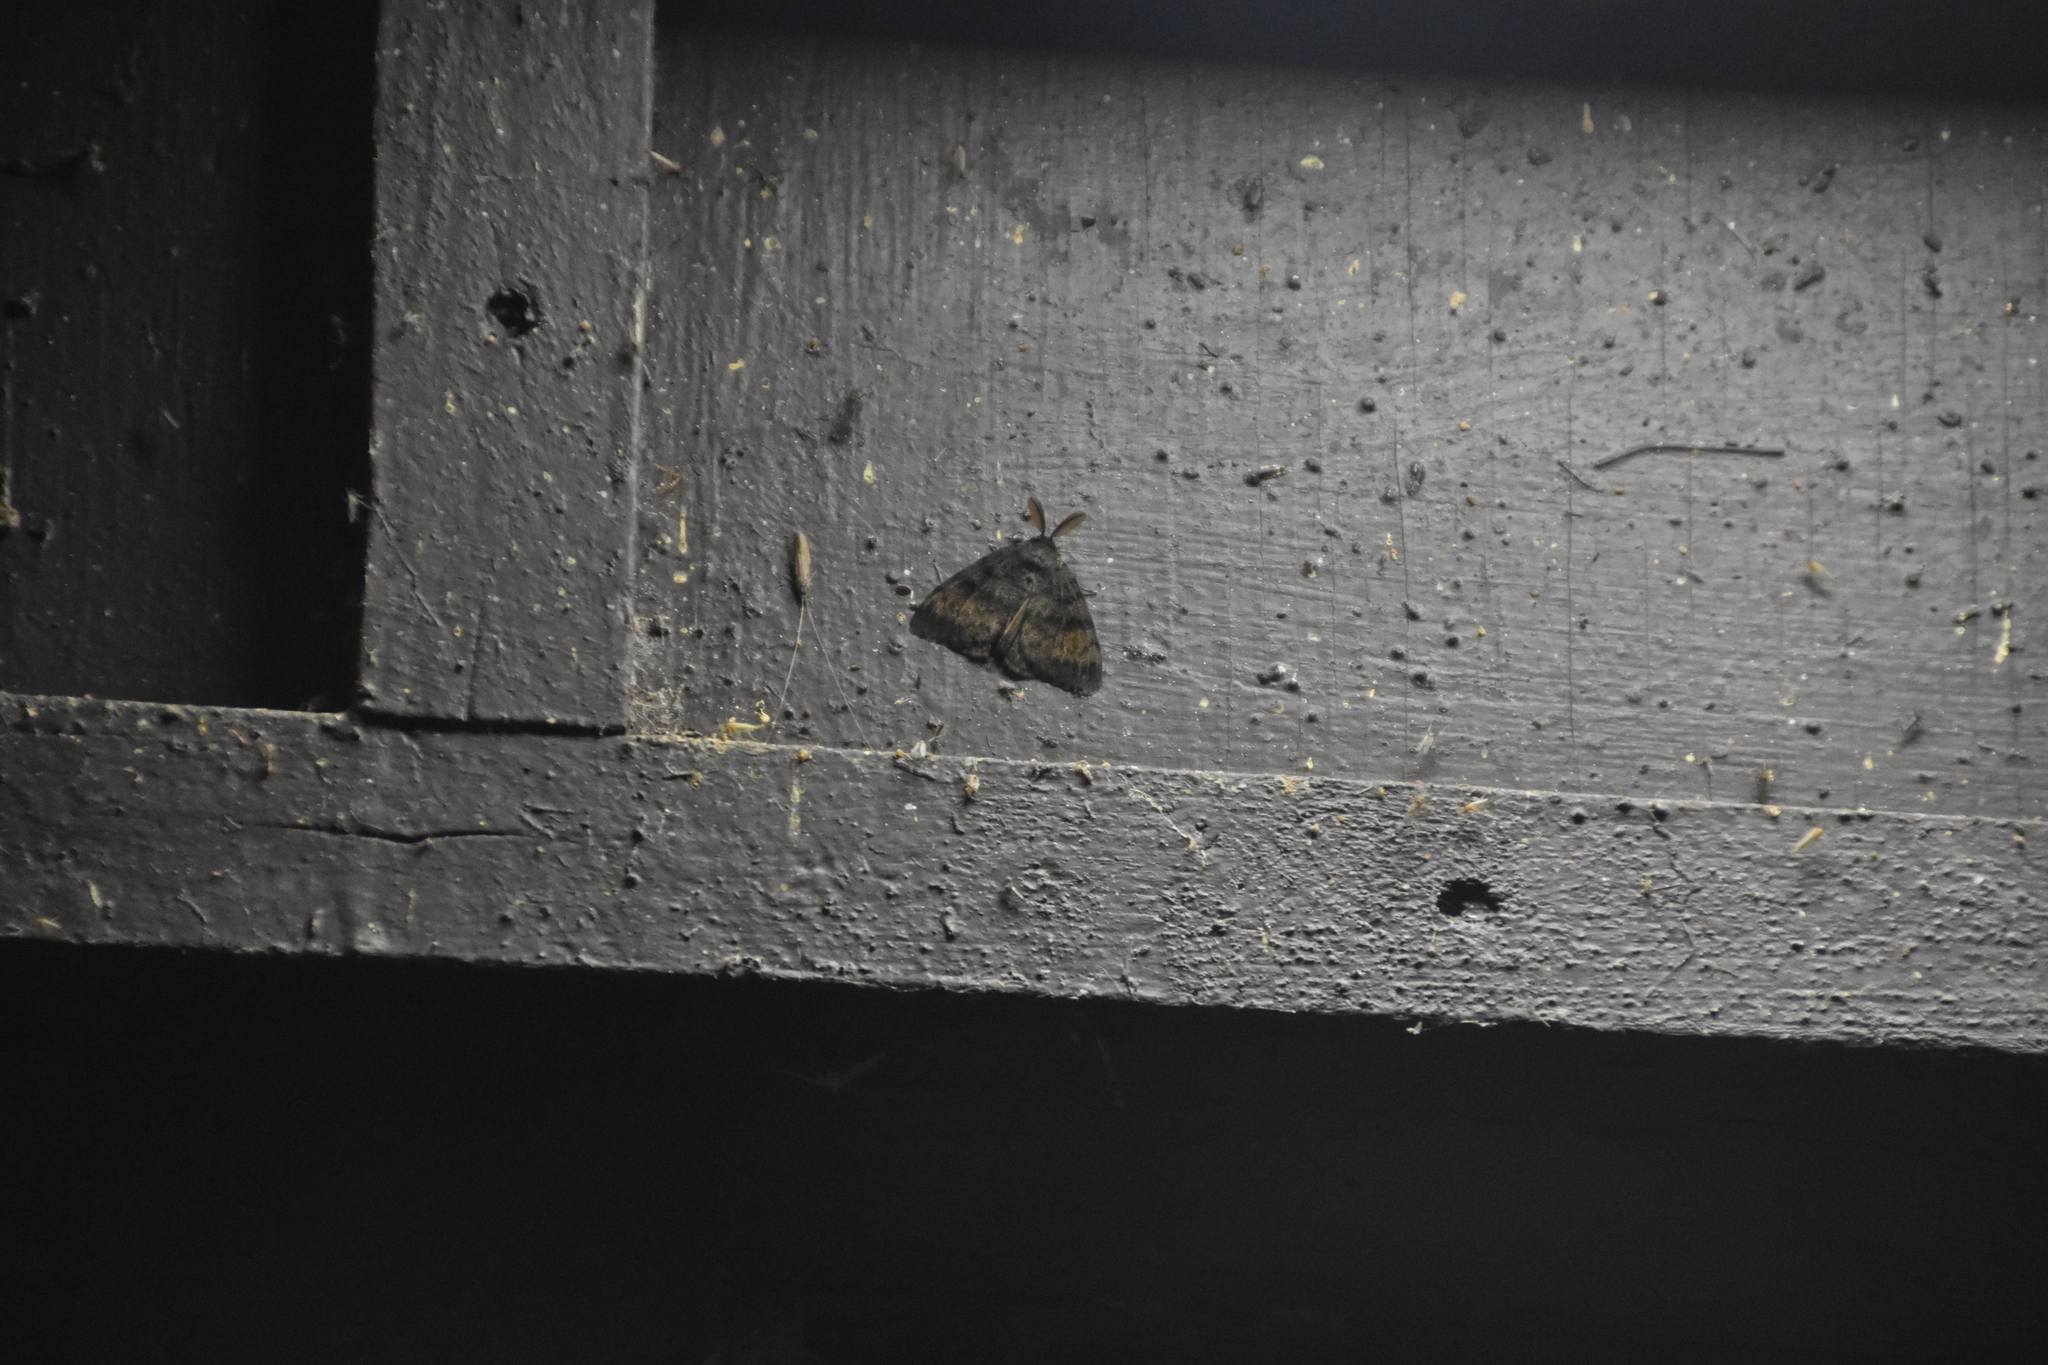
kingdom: Animalia
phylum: Arthropoda
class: Insecta
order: Lepidoptera
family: Erebidae
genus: Lymantria
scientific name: Lymantria dispar
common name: Gypsy moth
